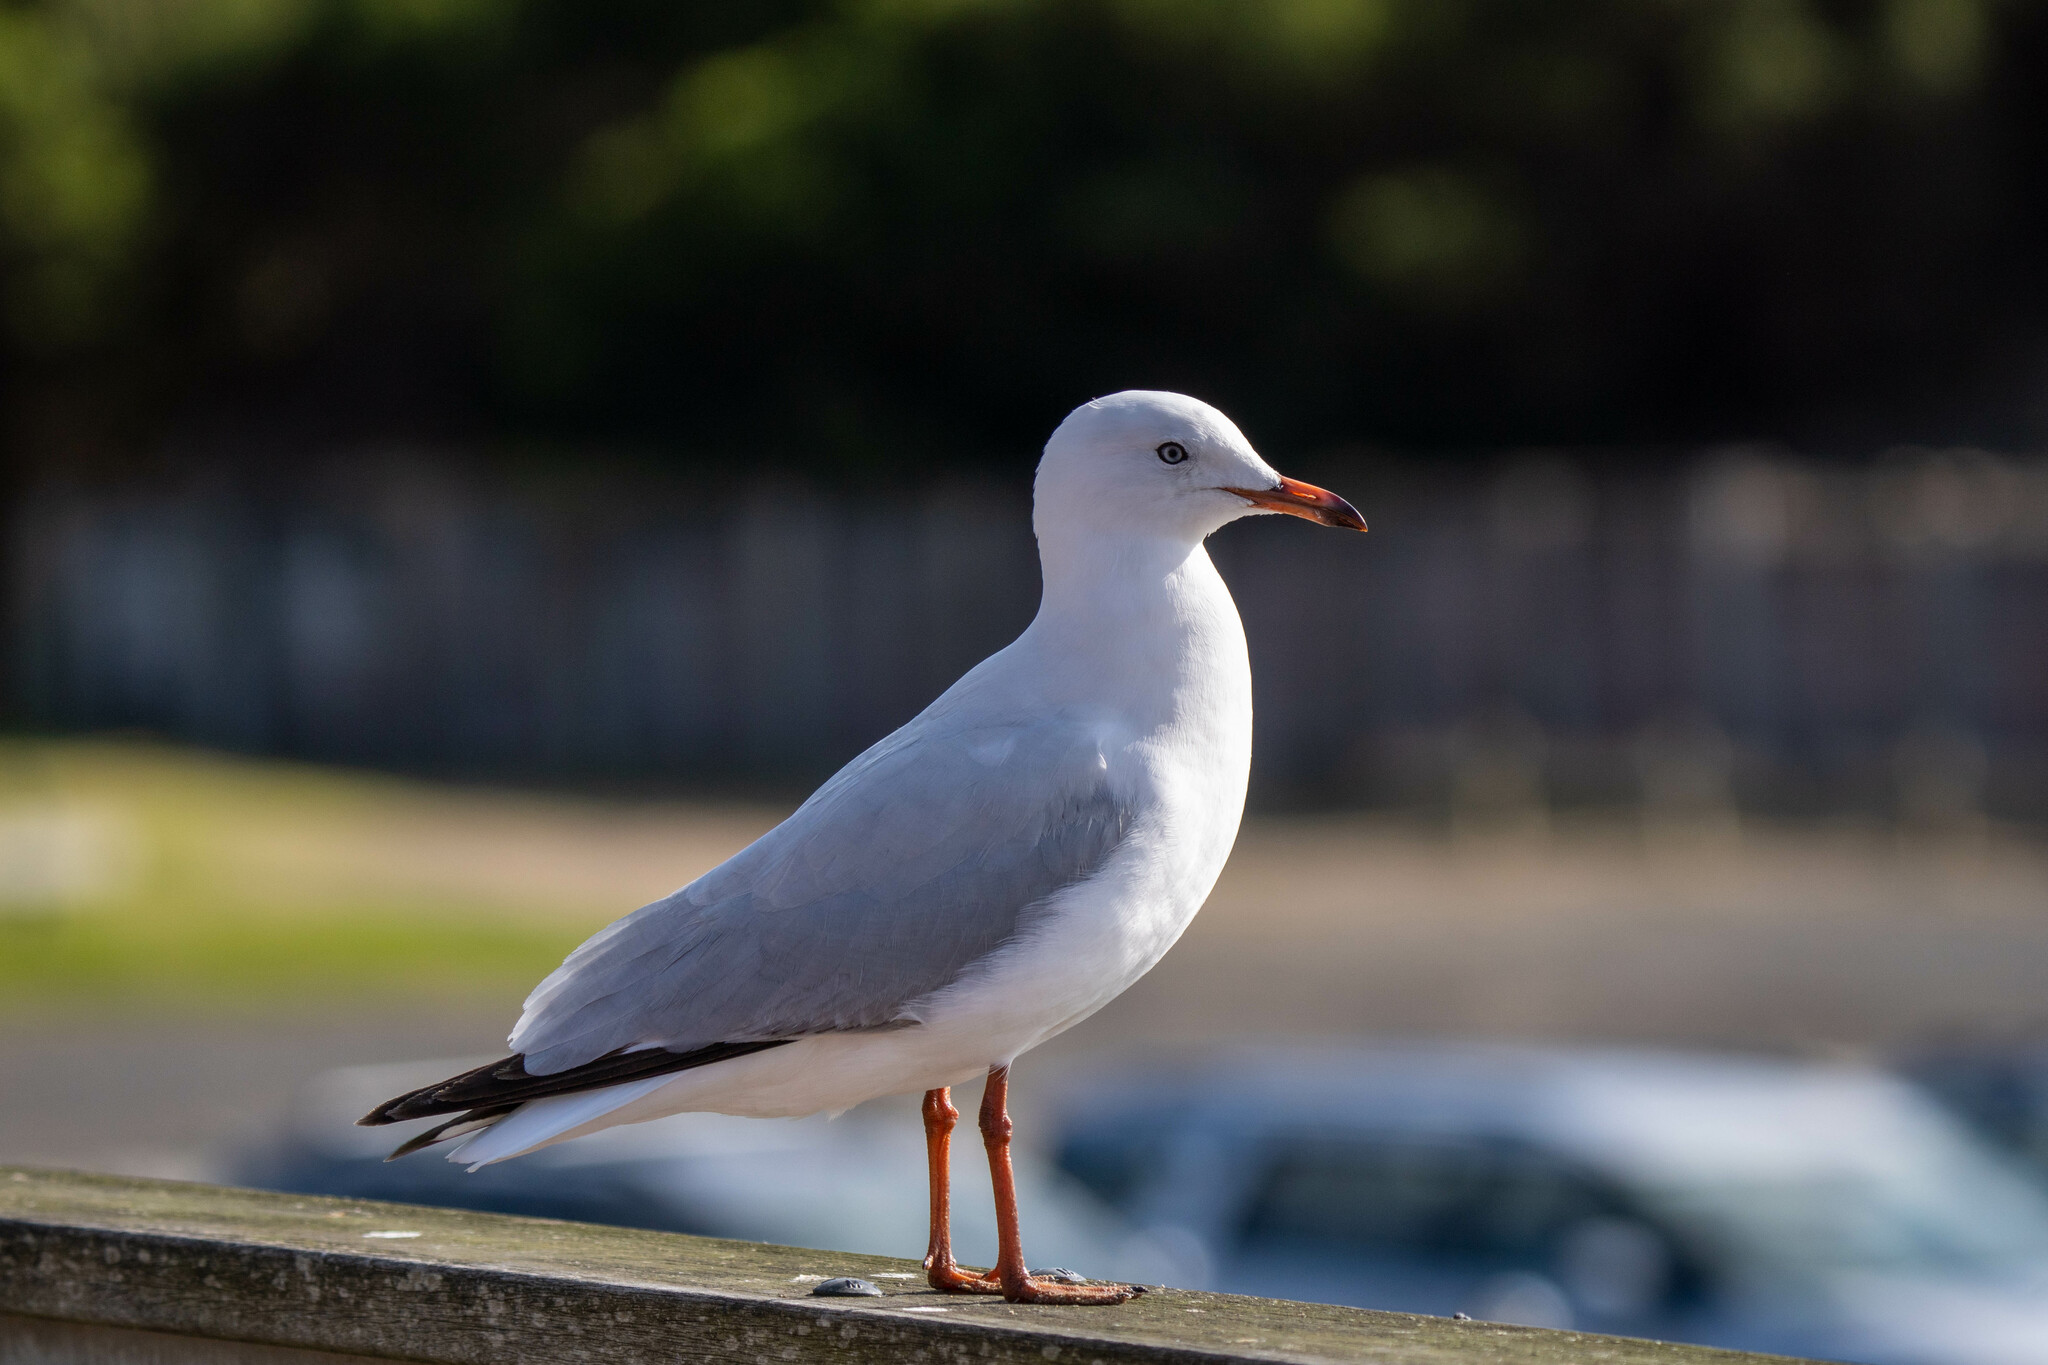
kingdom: Animalia
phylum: Chordata
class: Aves
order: Charadriiformes
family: Laridae
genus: Chroicocephalus
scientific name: Chroicocephalus novaehollandiae
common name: Silver gull
